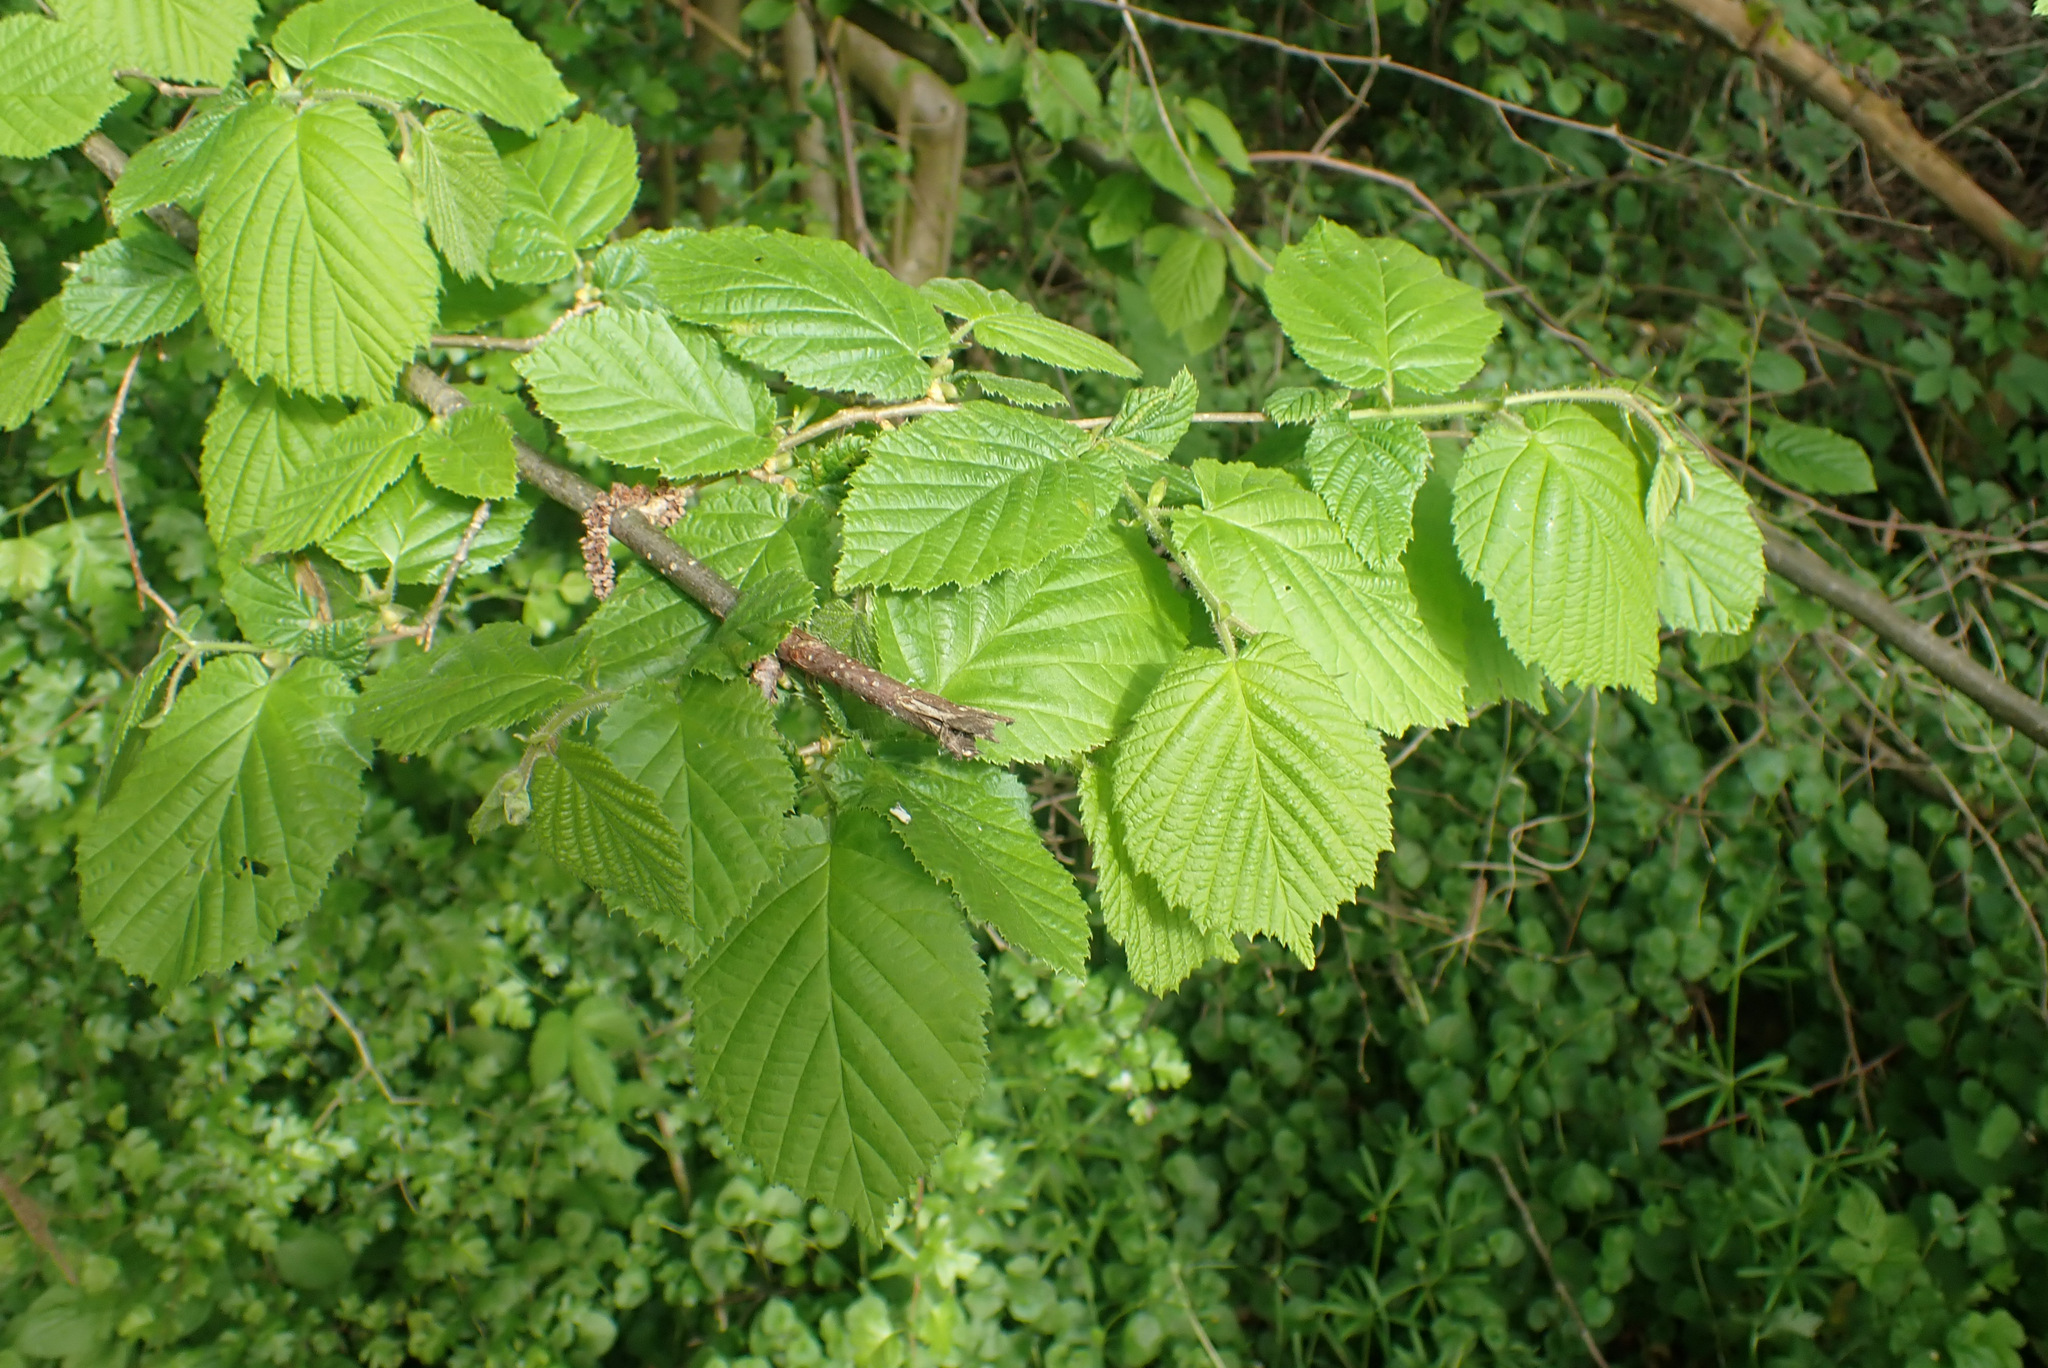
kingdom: Plantae
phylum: Tracheophyta
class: Magnoliopsida
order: Fagales
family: Betulaceae
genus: Corylus
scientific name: Corylus avellana
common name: European hazel
